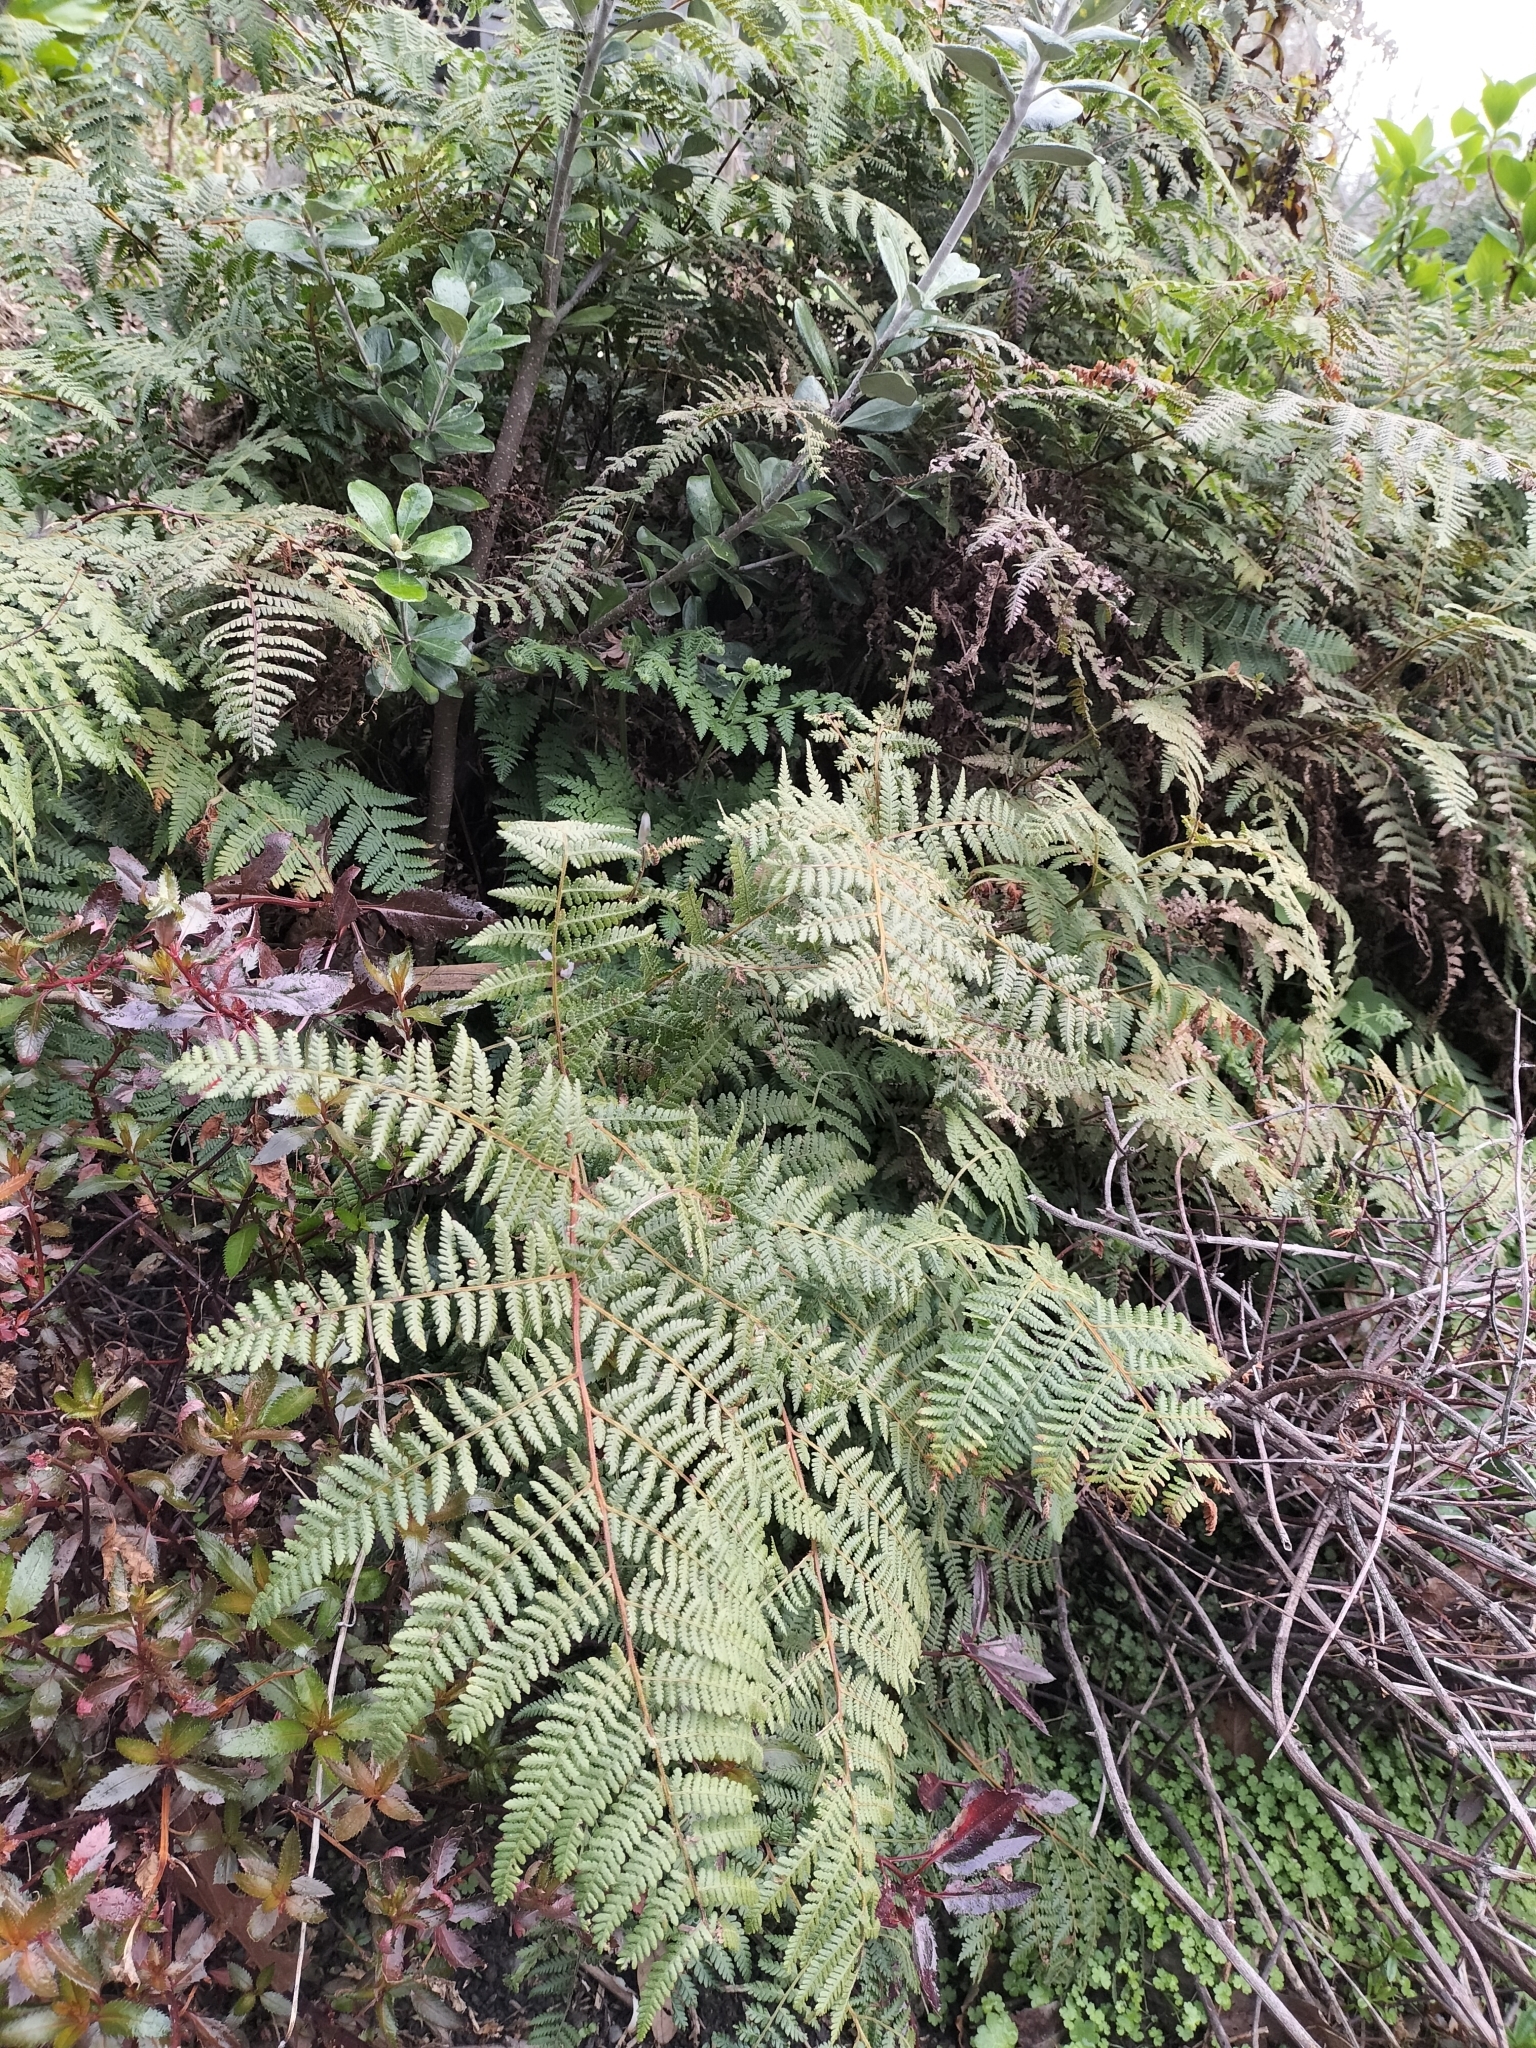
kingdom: Plantae
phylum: Tracheophyta
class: Polypodiopsida
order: Polypodiales
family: Dennstaedtiaceae
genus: Hypolepis
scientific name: Hypolepis ambigua
